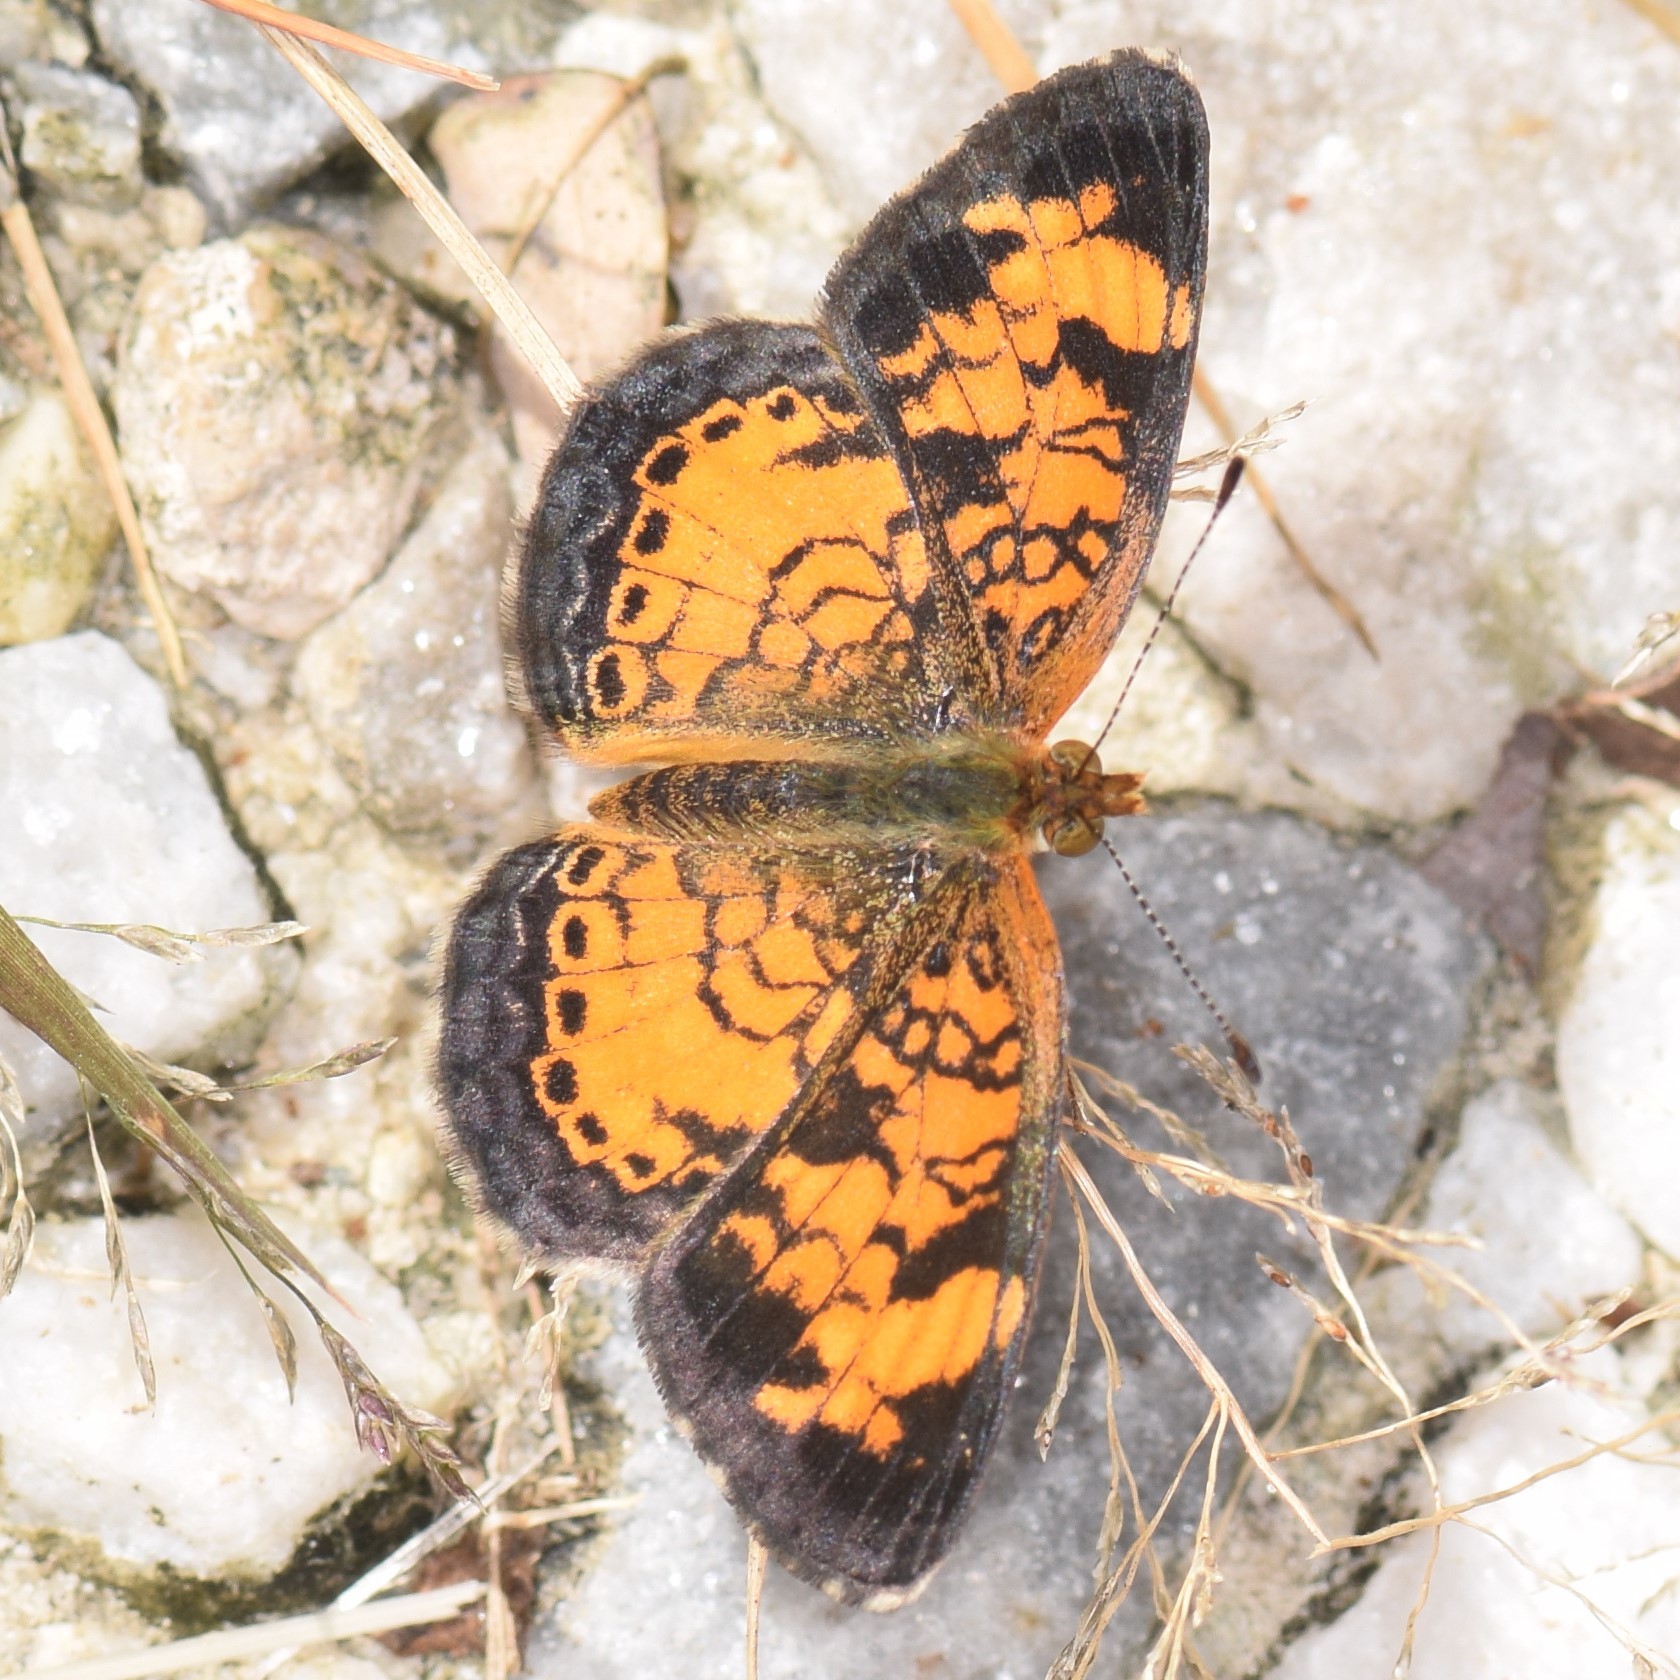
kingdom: Animalia
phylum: Arthropoda
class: Insecta
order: Lepidoptera
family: Nymphalidae
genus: Phyciodes
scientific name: Phyciodes tharos
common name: Pearl crescent
